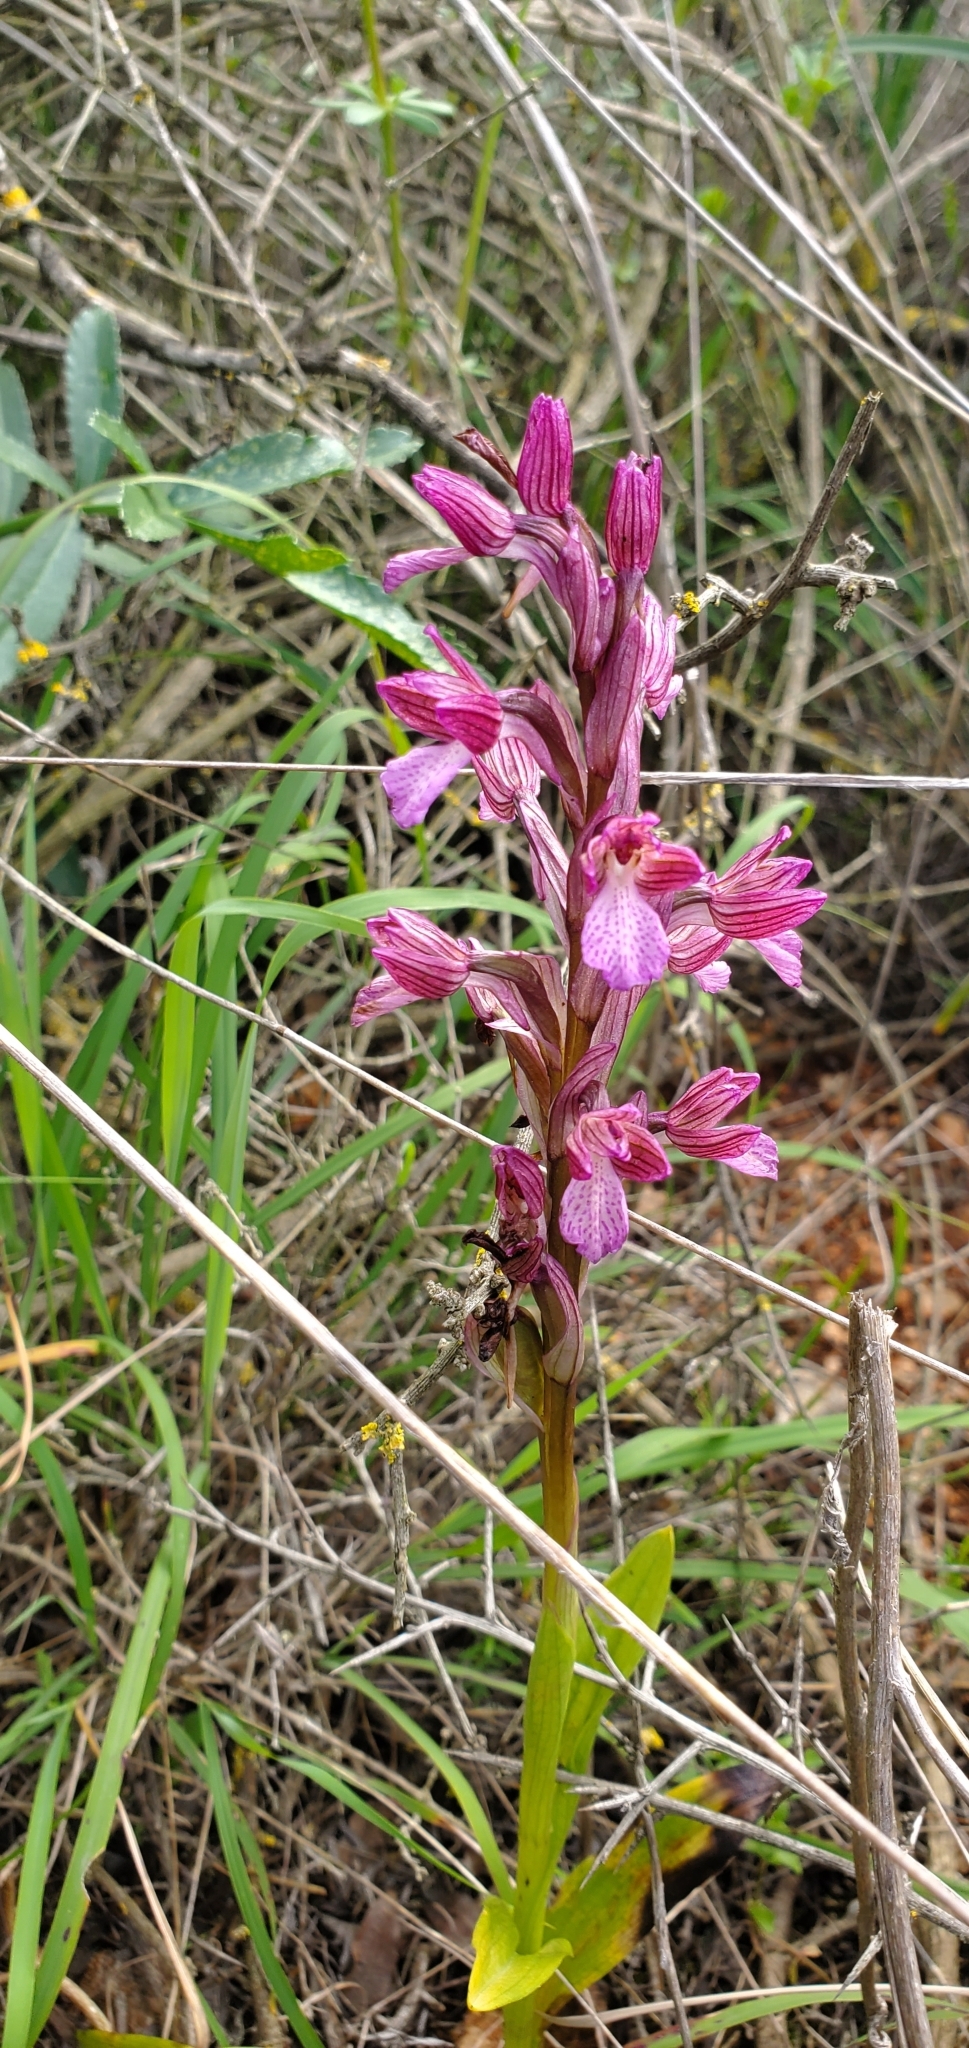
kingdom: Plantae
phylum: Tracheophyta
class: Liliopsida
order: Asparagales
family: Orchidaceae
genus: Anacamptis
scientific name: Anacamptis papilionacea
